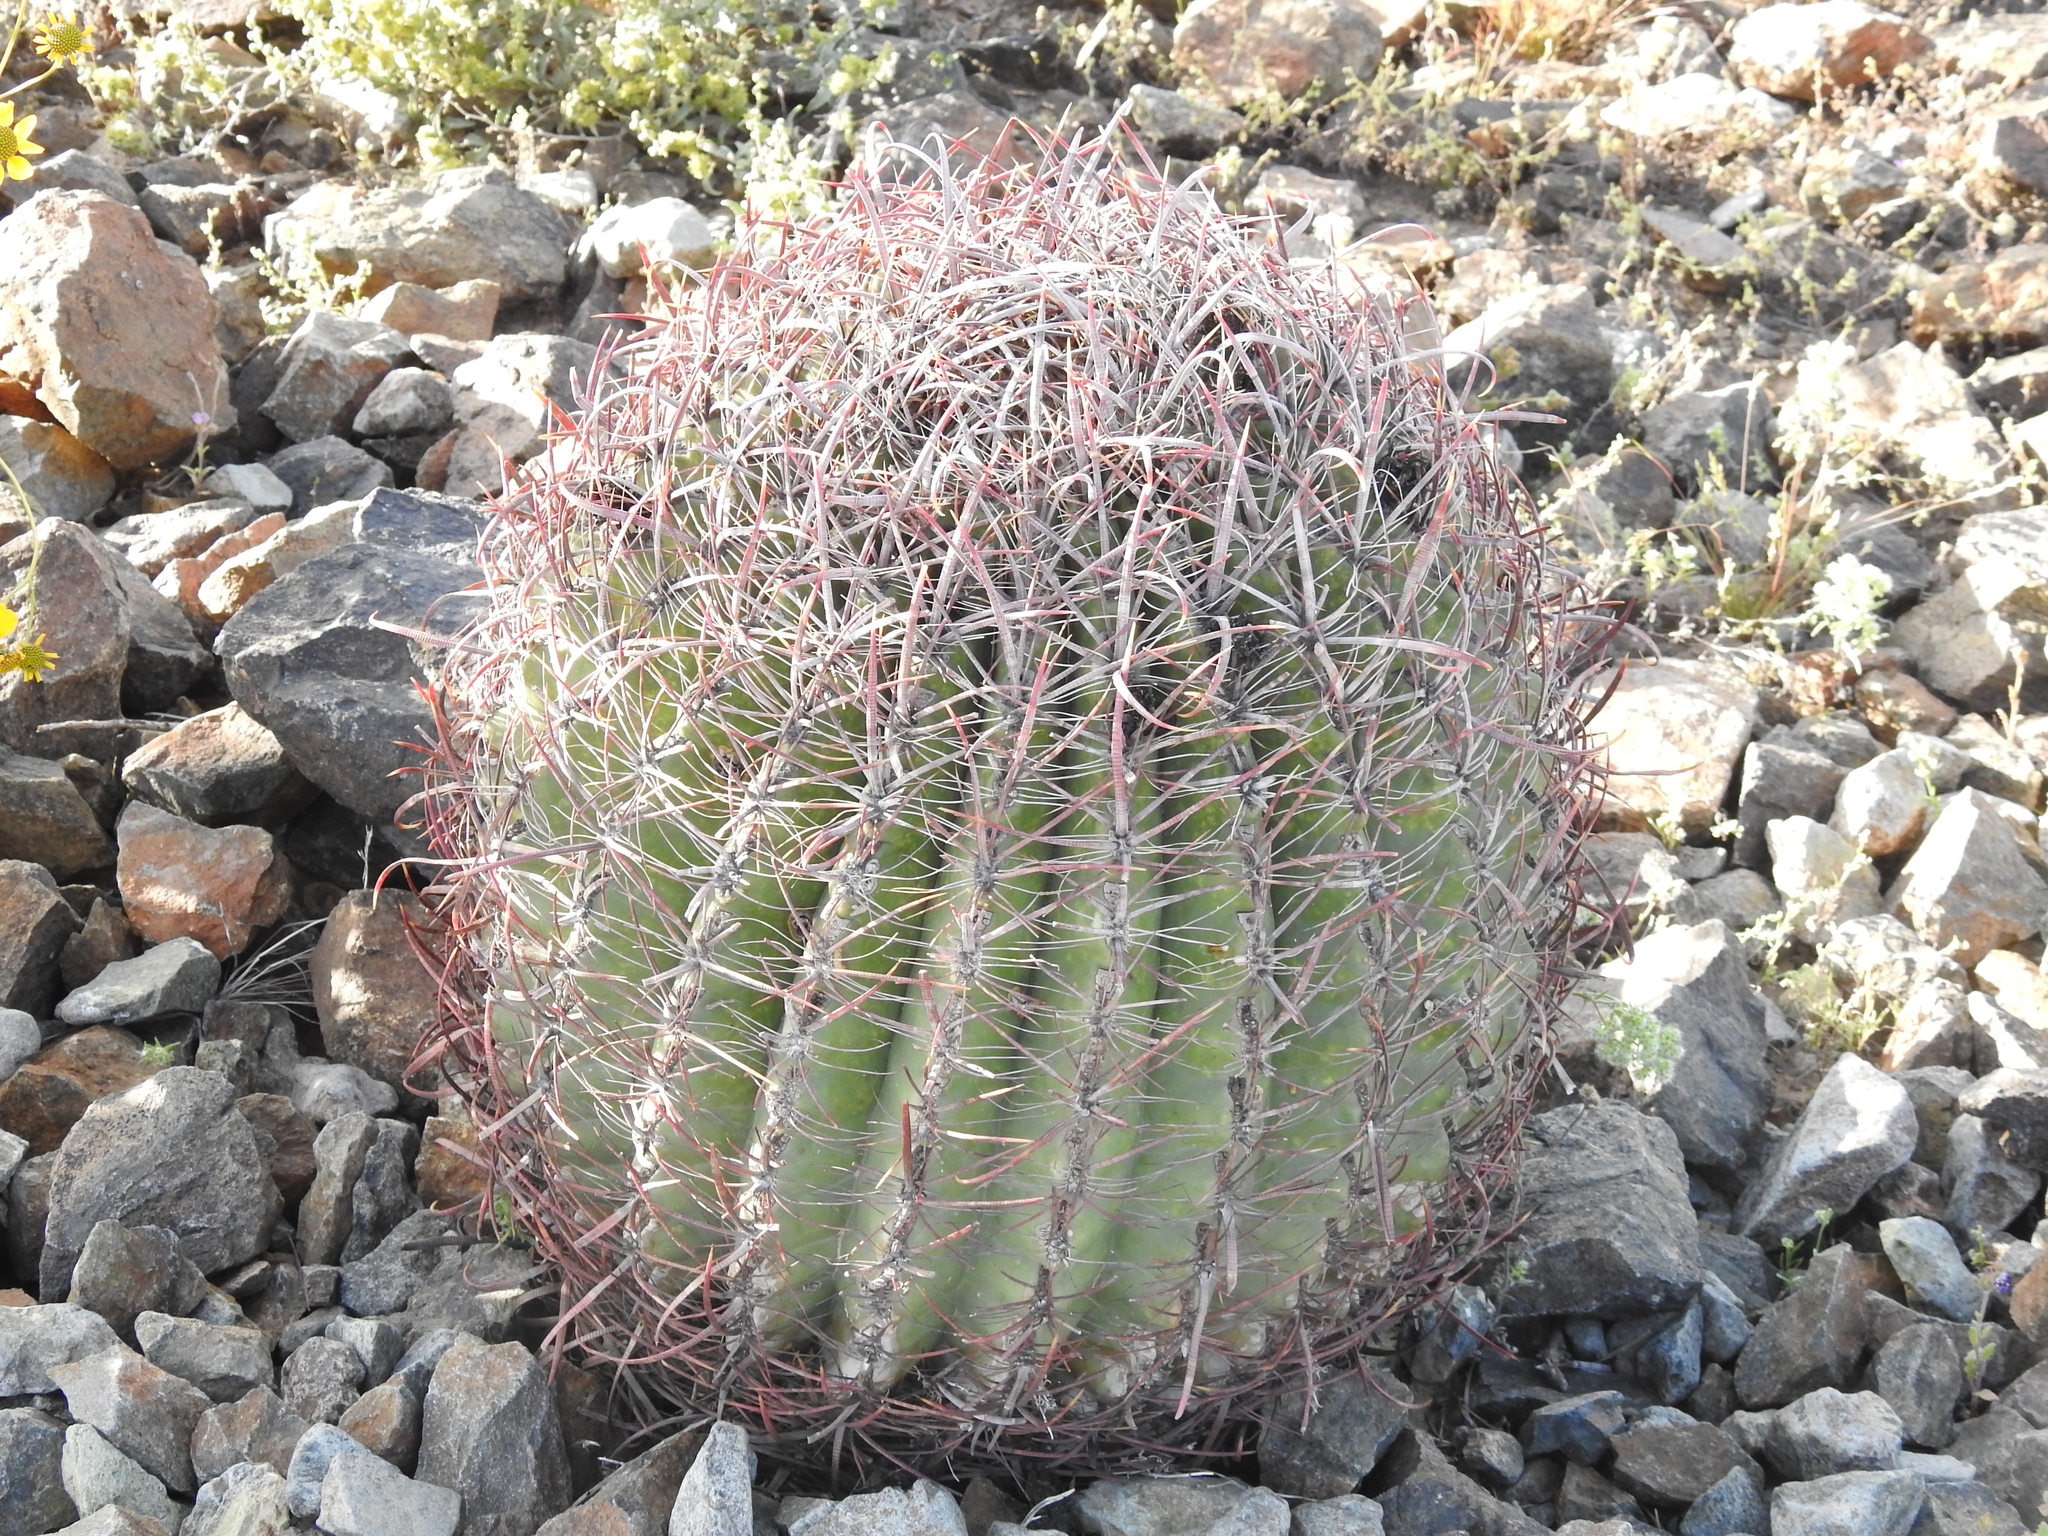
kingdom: Plantae
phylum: Tracheophyta
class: Magnoliopsida
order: Caryophyllales
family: Cactaceae
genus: Ferocactus
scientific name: Ferocactus cylindraceus
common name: California barrel cactus
